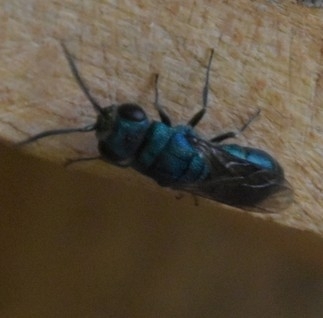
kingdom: Animalia
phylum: Arthropoda
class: Insecta
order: Hymenoptera
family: Pompilidae
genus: Pepsis
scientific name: Pepsis cyanea
